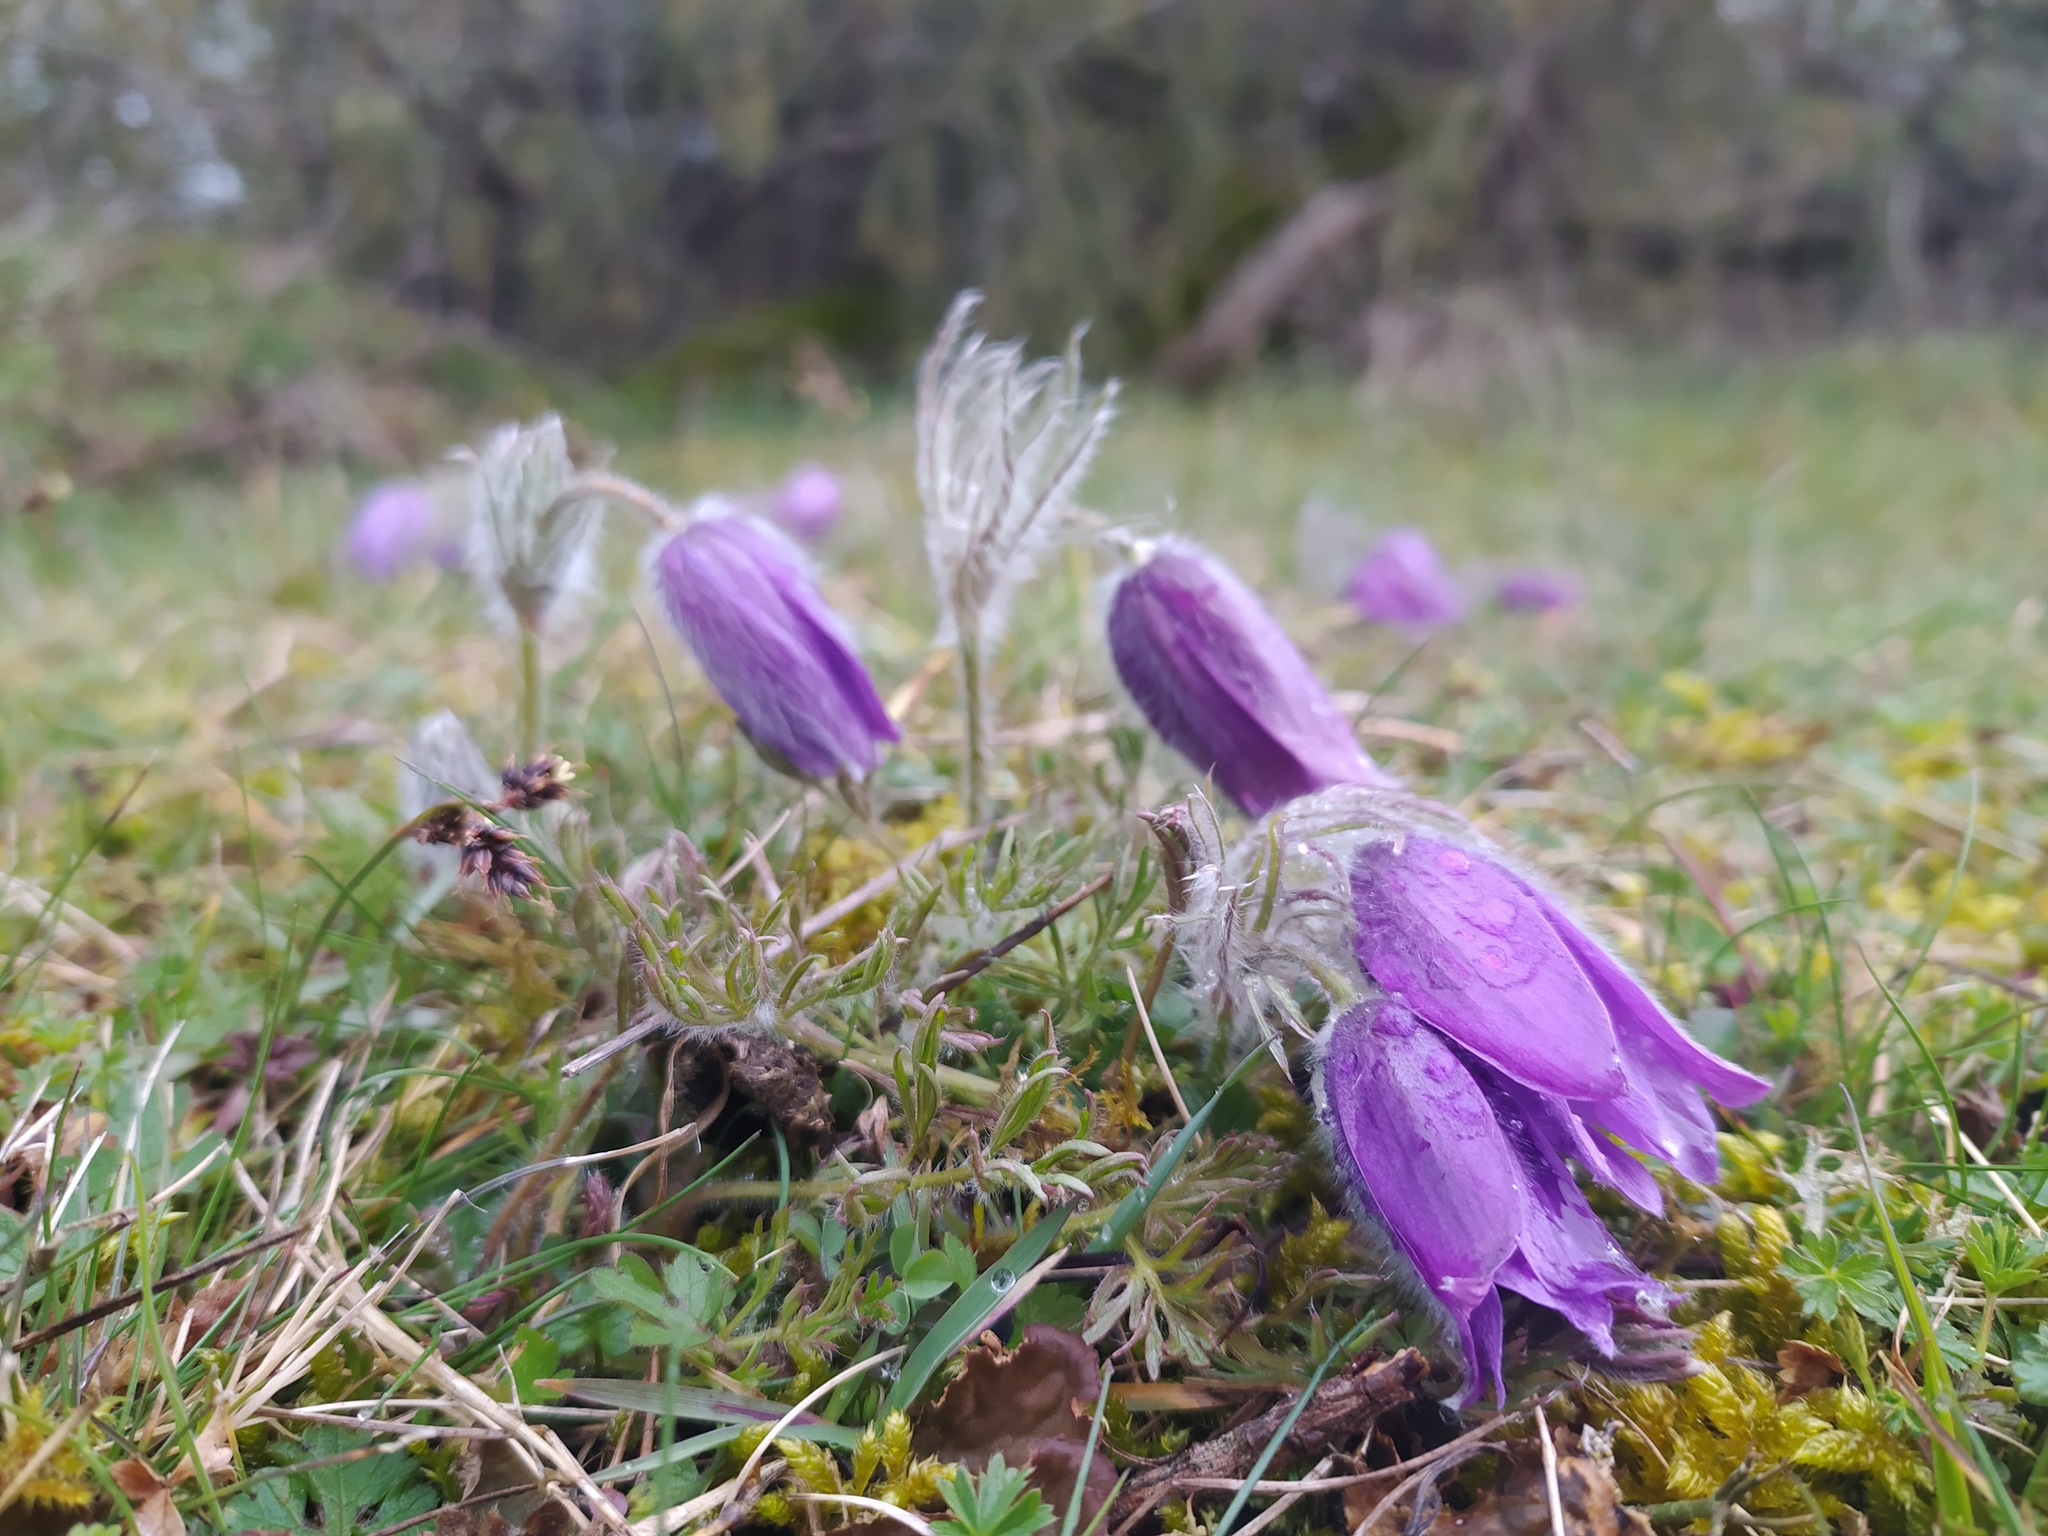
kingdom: Plantae
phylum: Tracheophyta
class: Magnoliopsida
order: Ranunculales
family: Ranunculaceae
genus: Pulsatilla
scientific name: Pulsatilla vulgaris
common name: Pasqueflower
